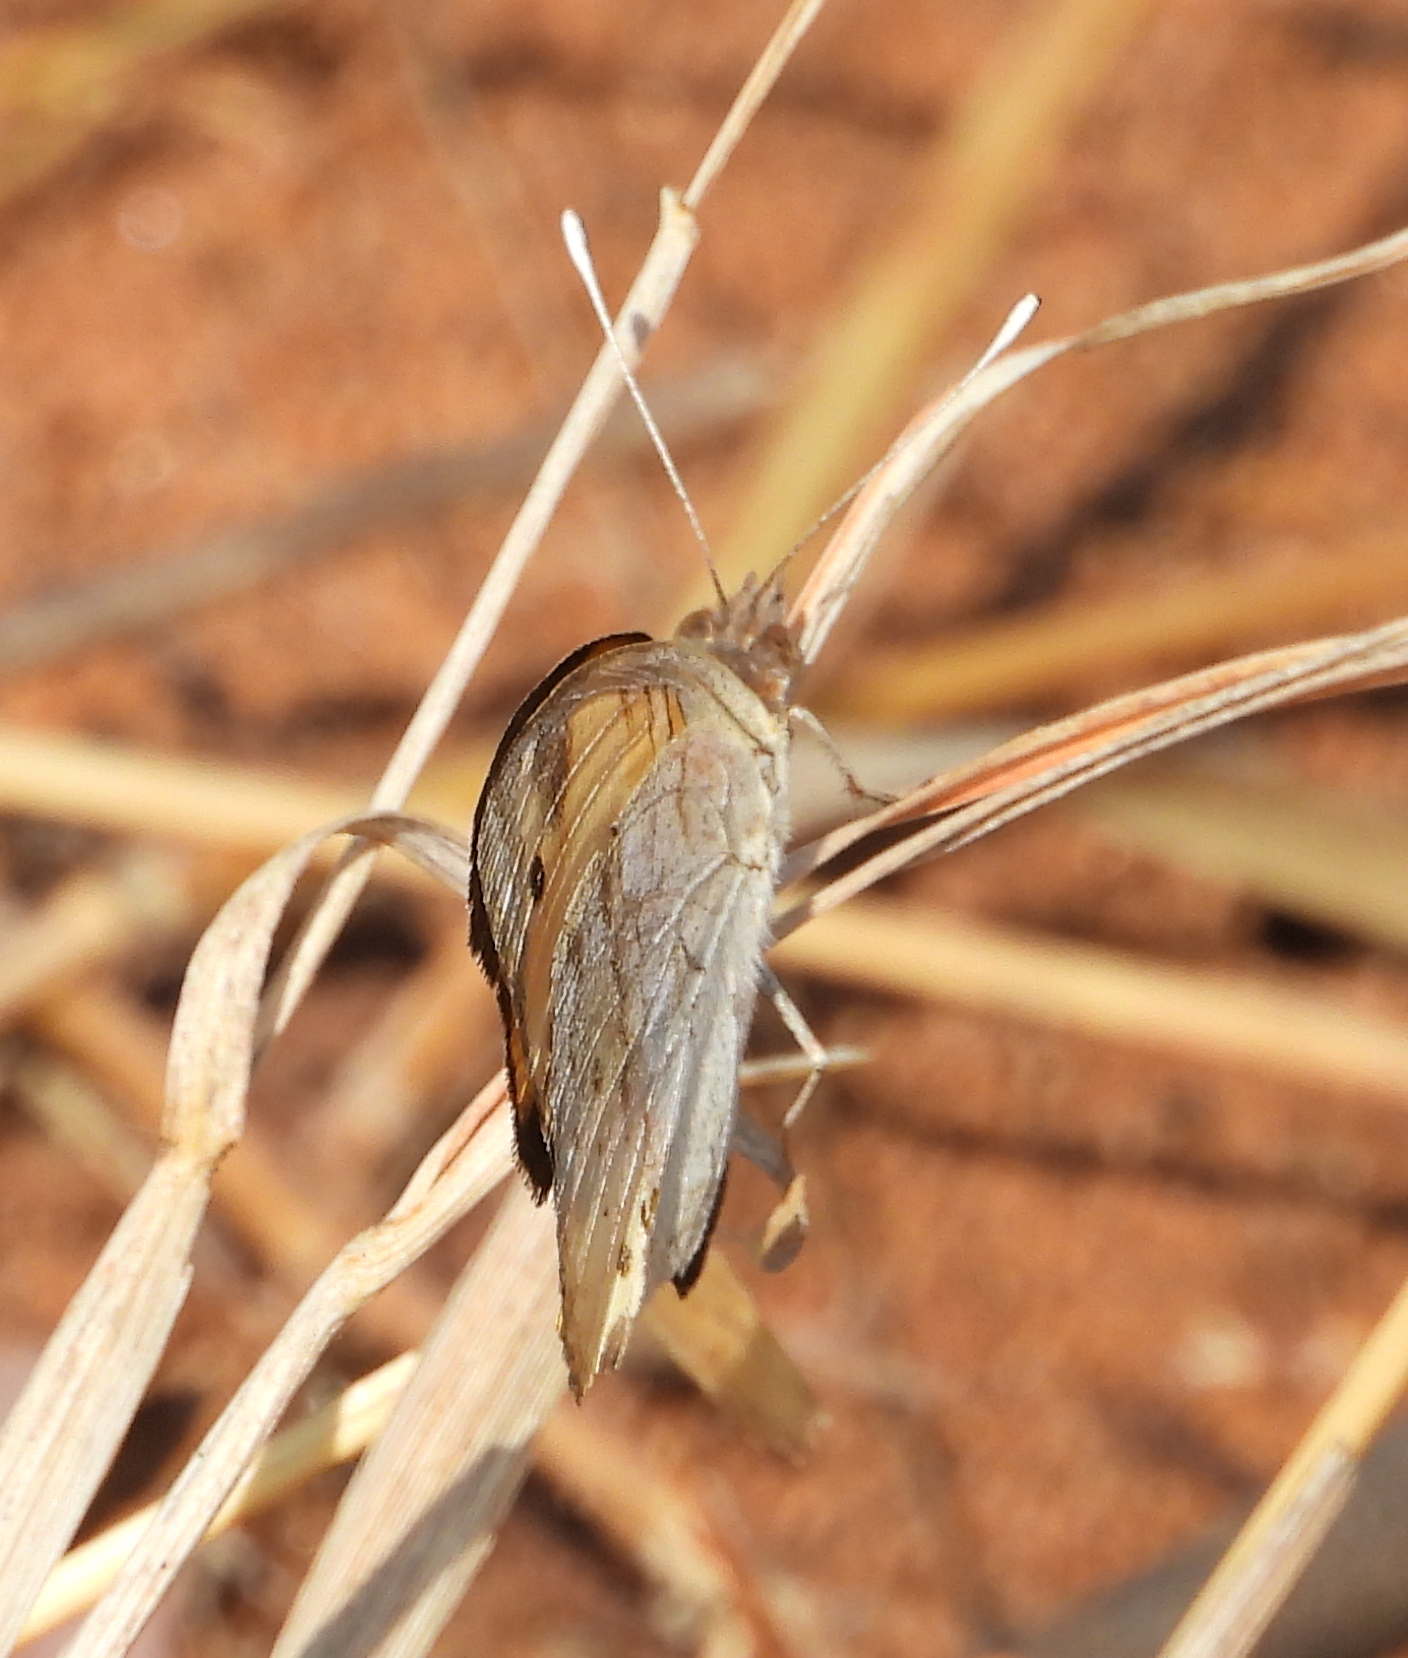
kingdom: Animalia
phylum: Arthropoda
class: Insecta
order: Lepidoptera
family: Nymphalidae
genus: Junonia
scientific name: Junonia hierta
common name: Yellow pansy
